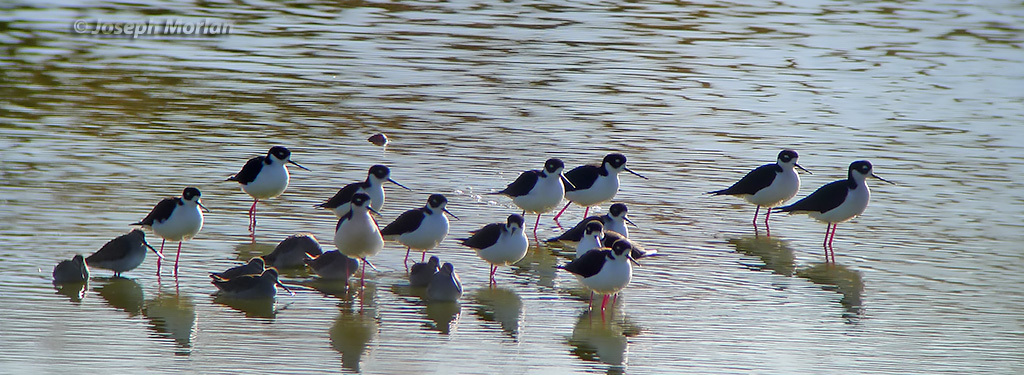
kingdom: Animalia
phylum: Chordata
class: Aves
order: Charadriiformes
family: Recurvirostridae
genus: Himantopus
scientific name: Himantopus mexicanus
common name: Black-necked stilt
